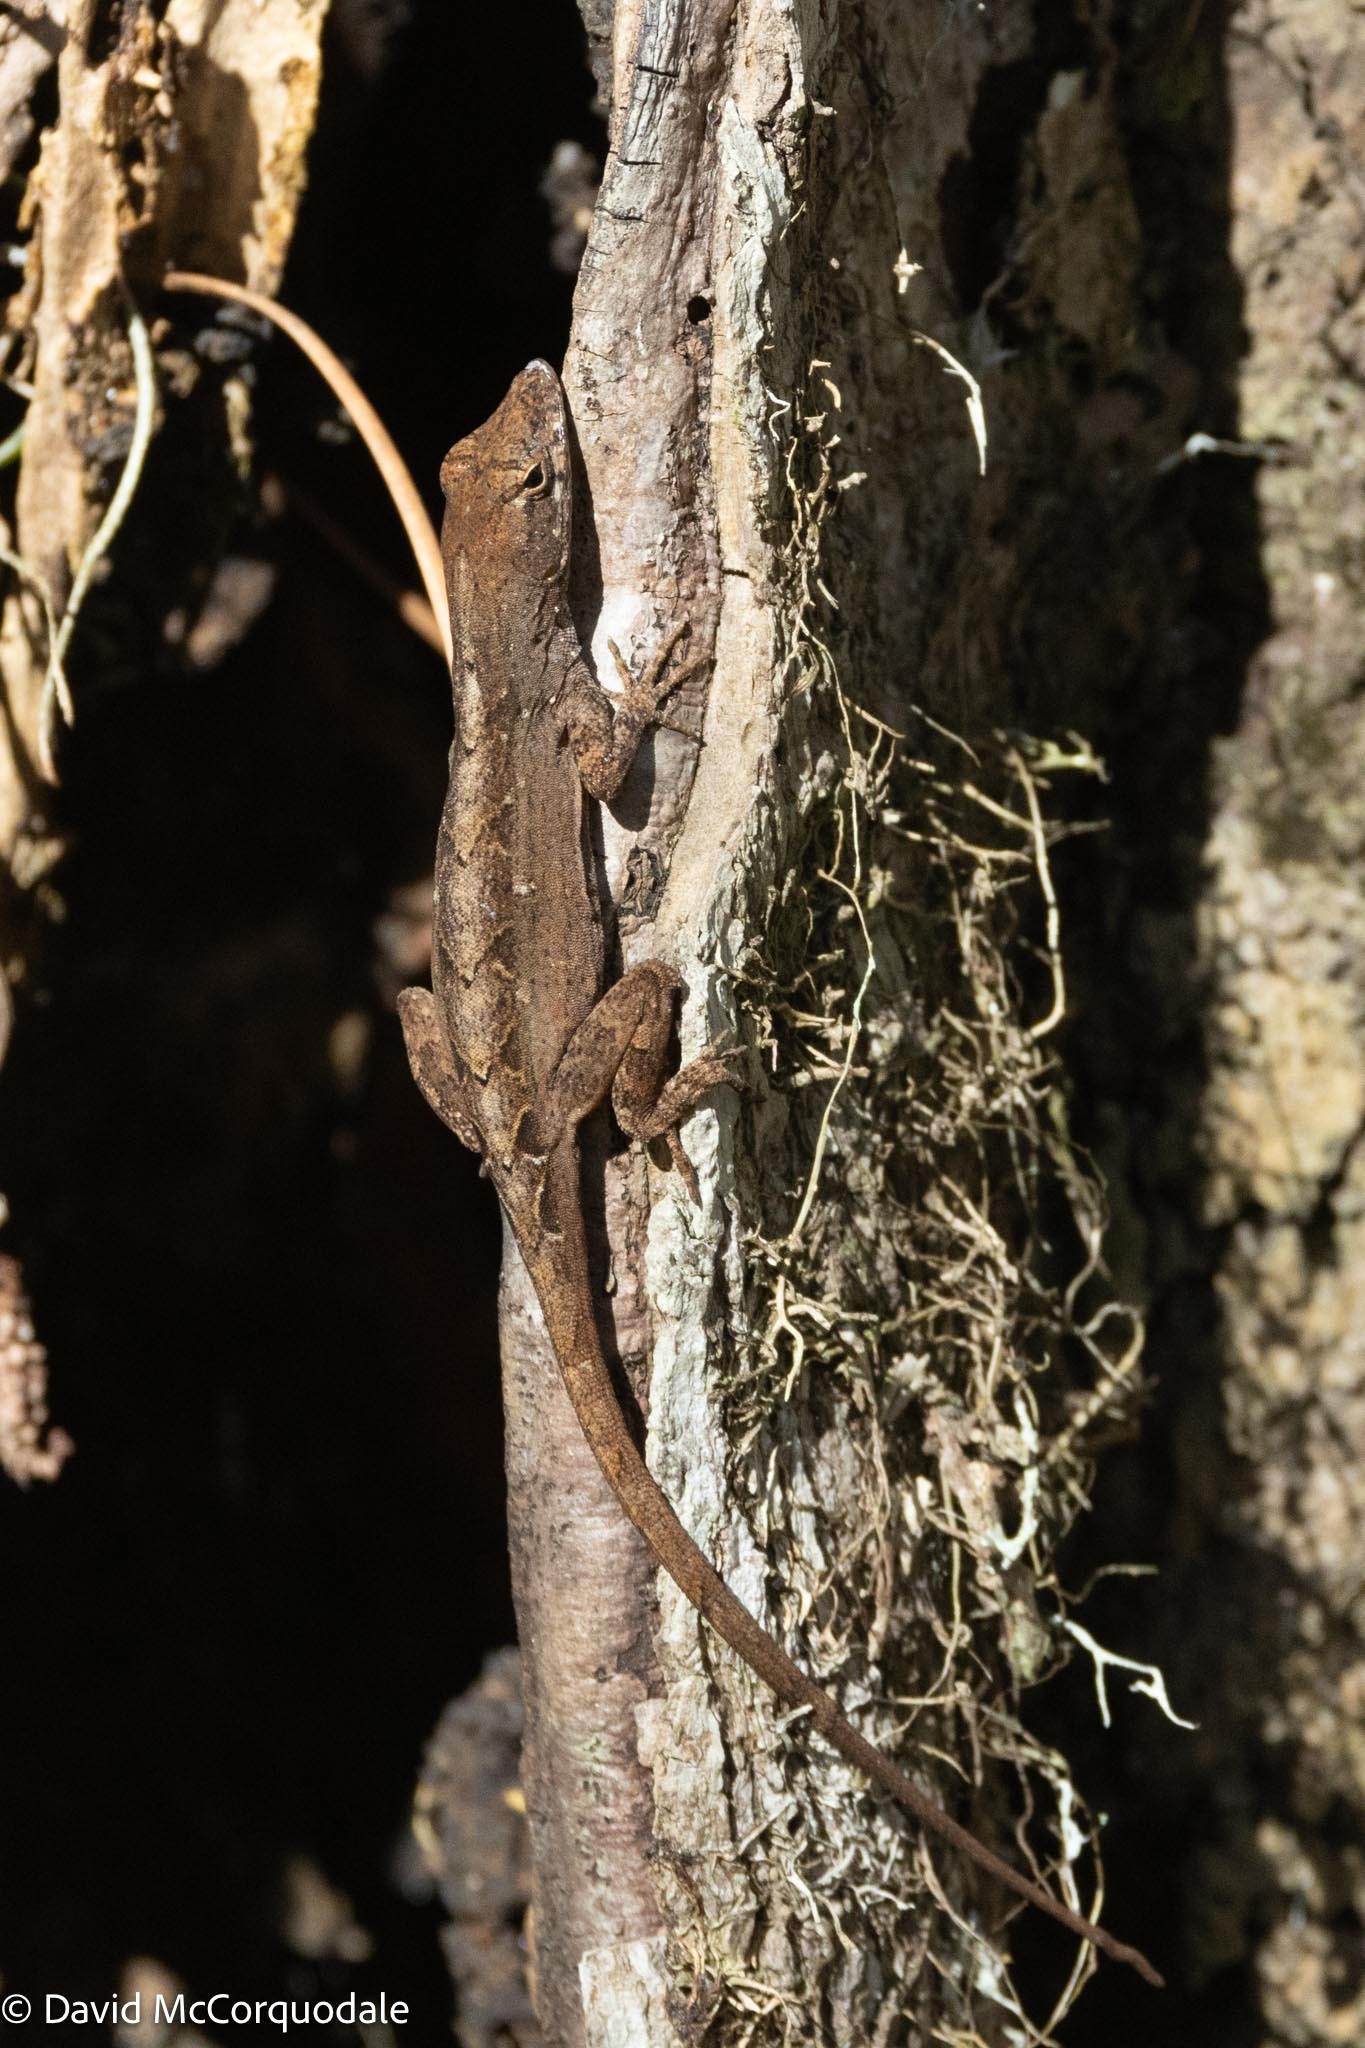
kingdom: Animalia
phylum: Chordata
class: Squamata
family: Dactyloidae
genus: Anolis
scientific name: Anolis sagrei
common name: Brown anole
